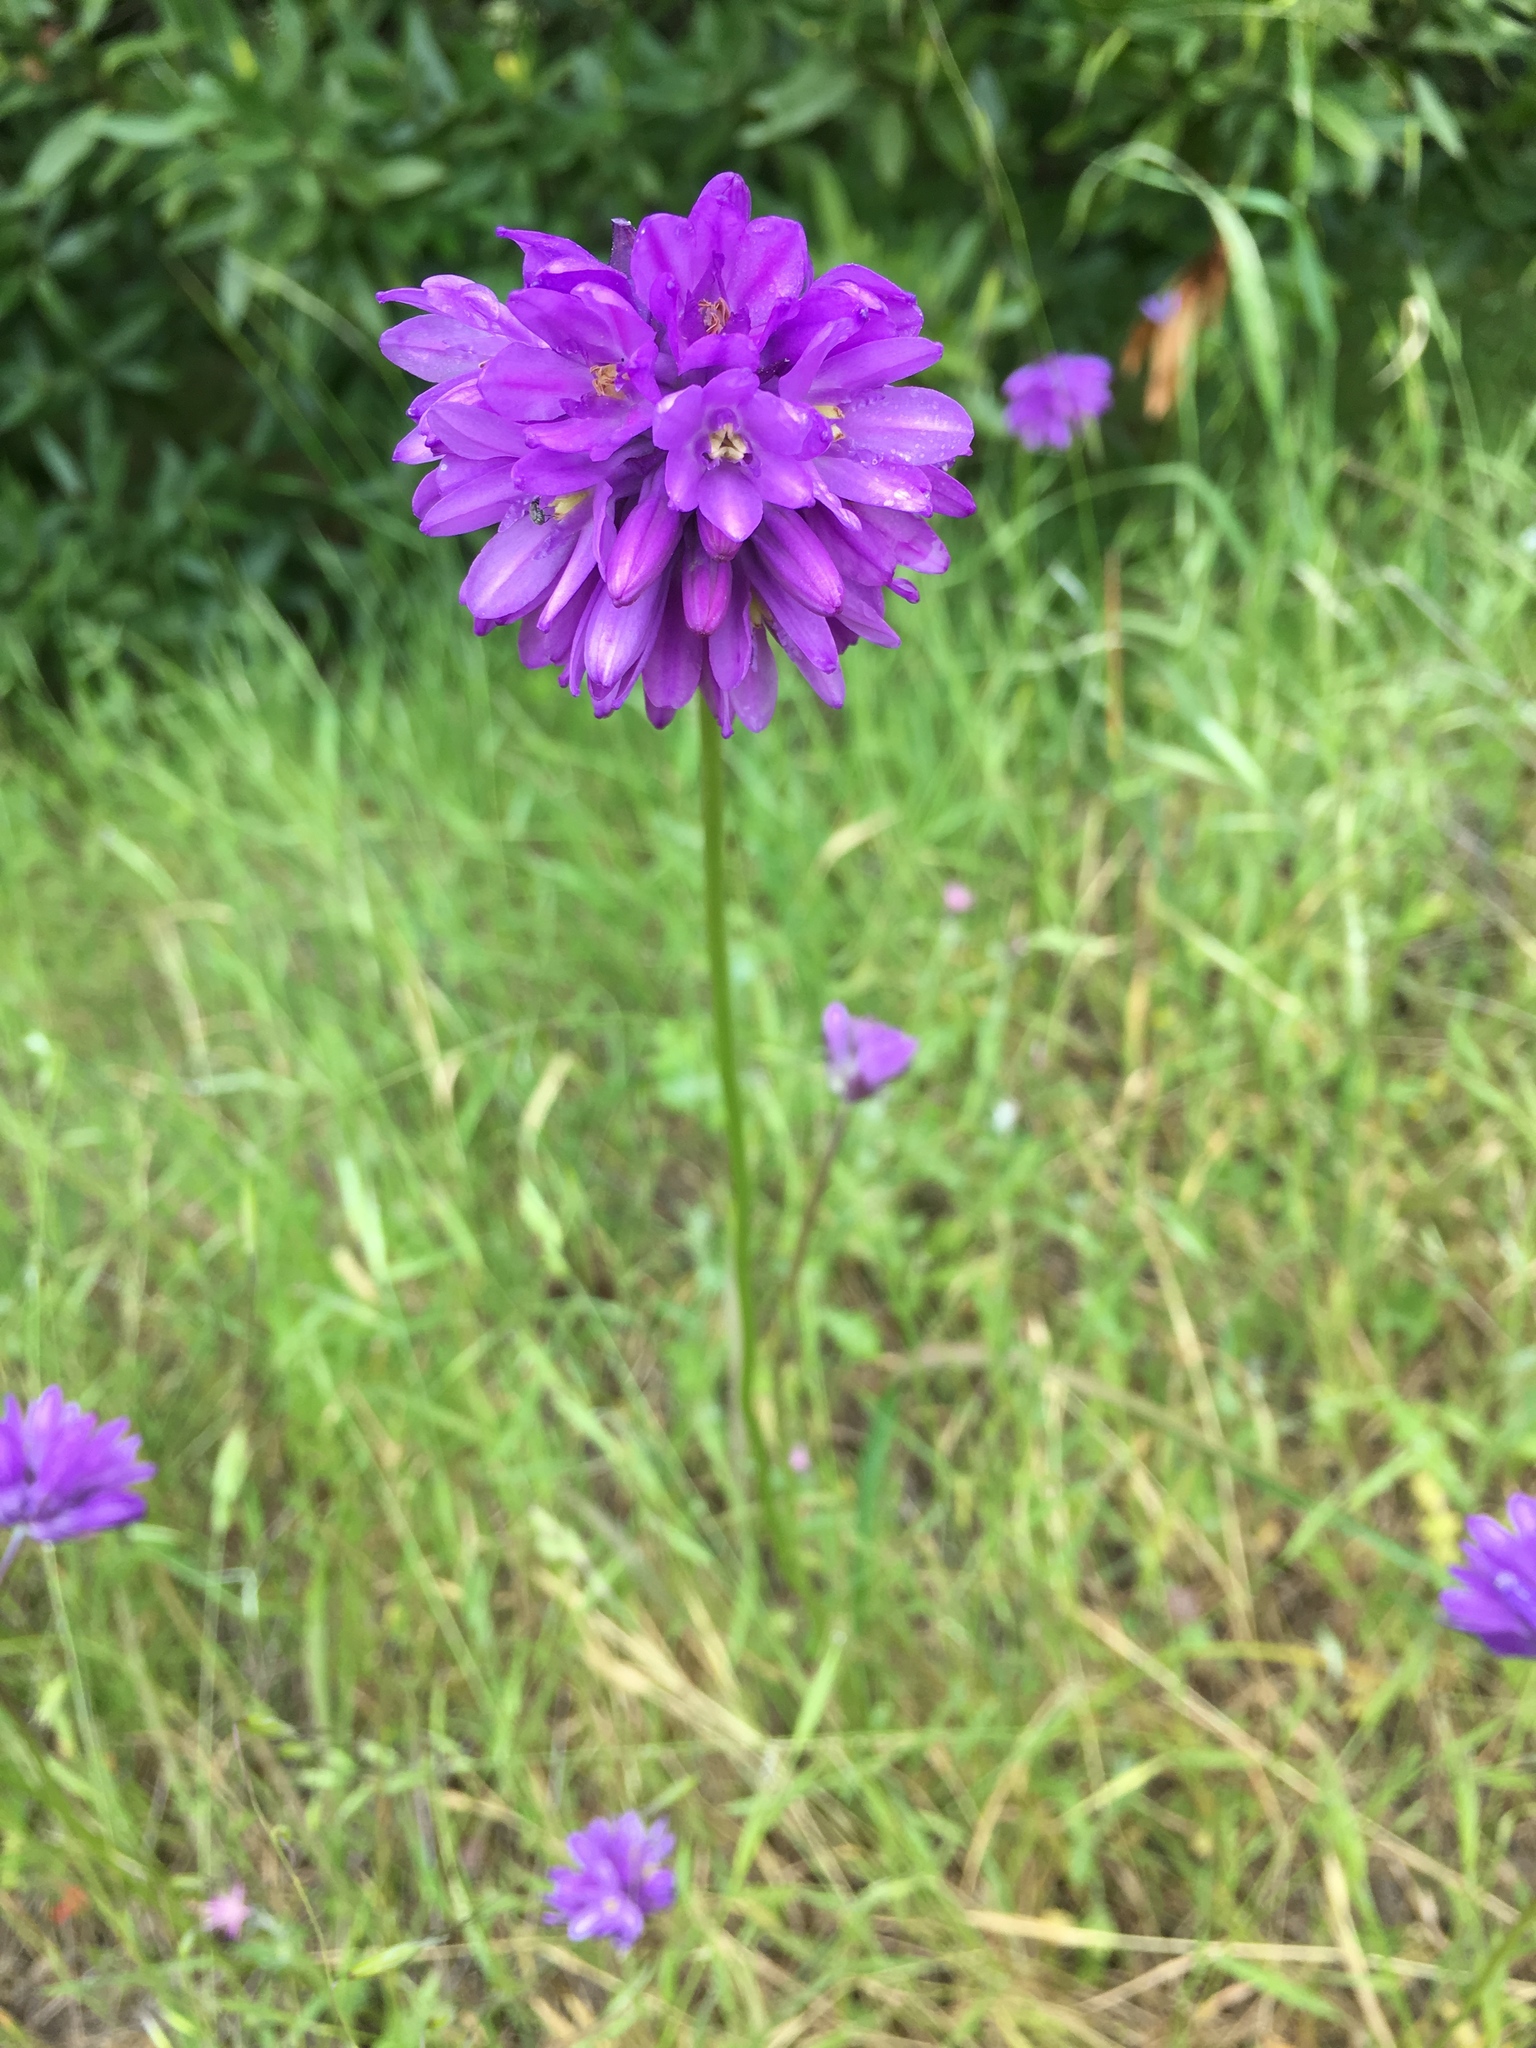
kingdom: Plantae
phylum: Tracheophyta
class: Liliopsida
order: Asparagales
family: Asparagaceae
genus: Dichelostemma
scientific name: Dichelostemma congestum
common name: Fork-tooth ookow
